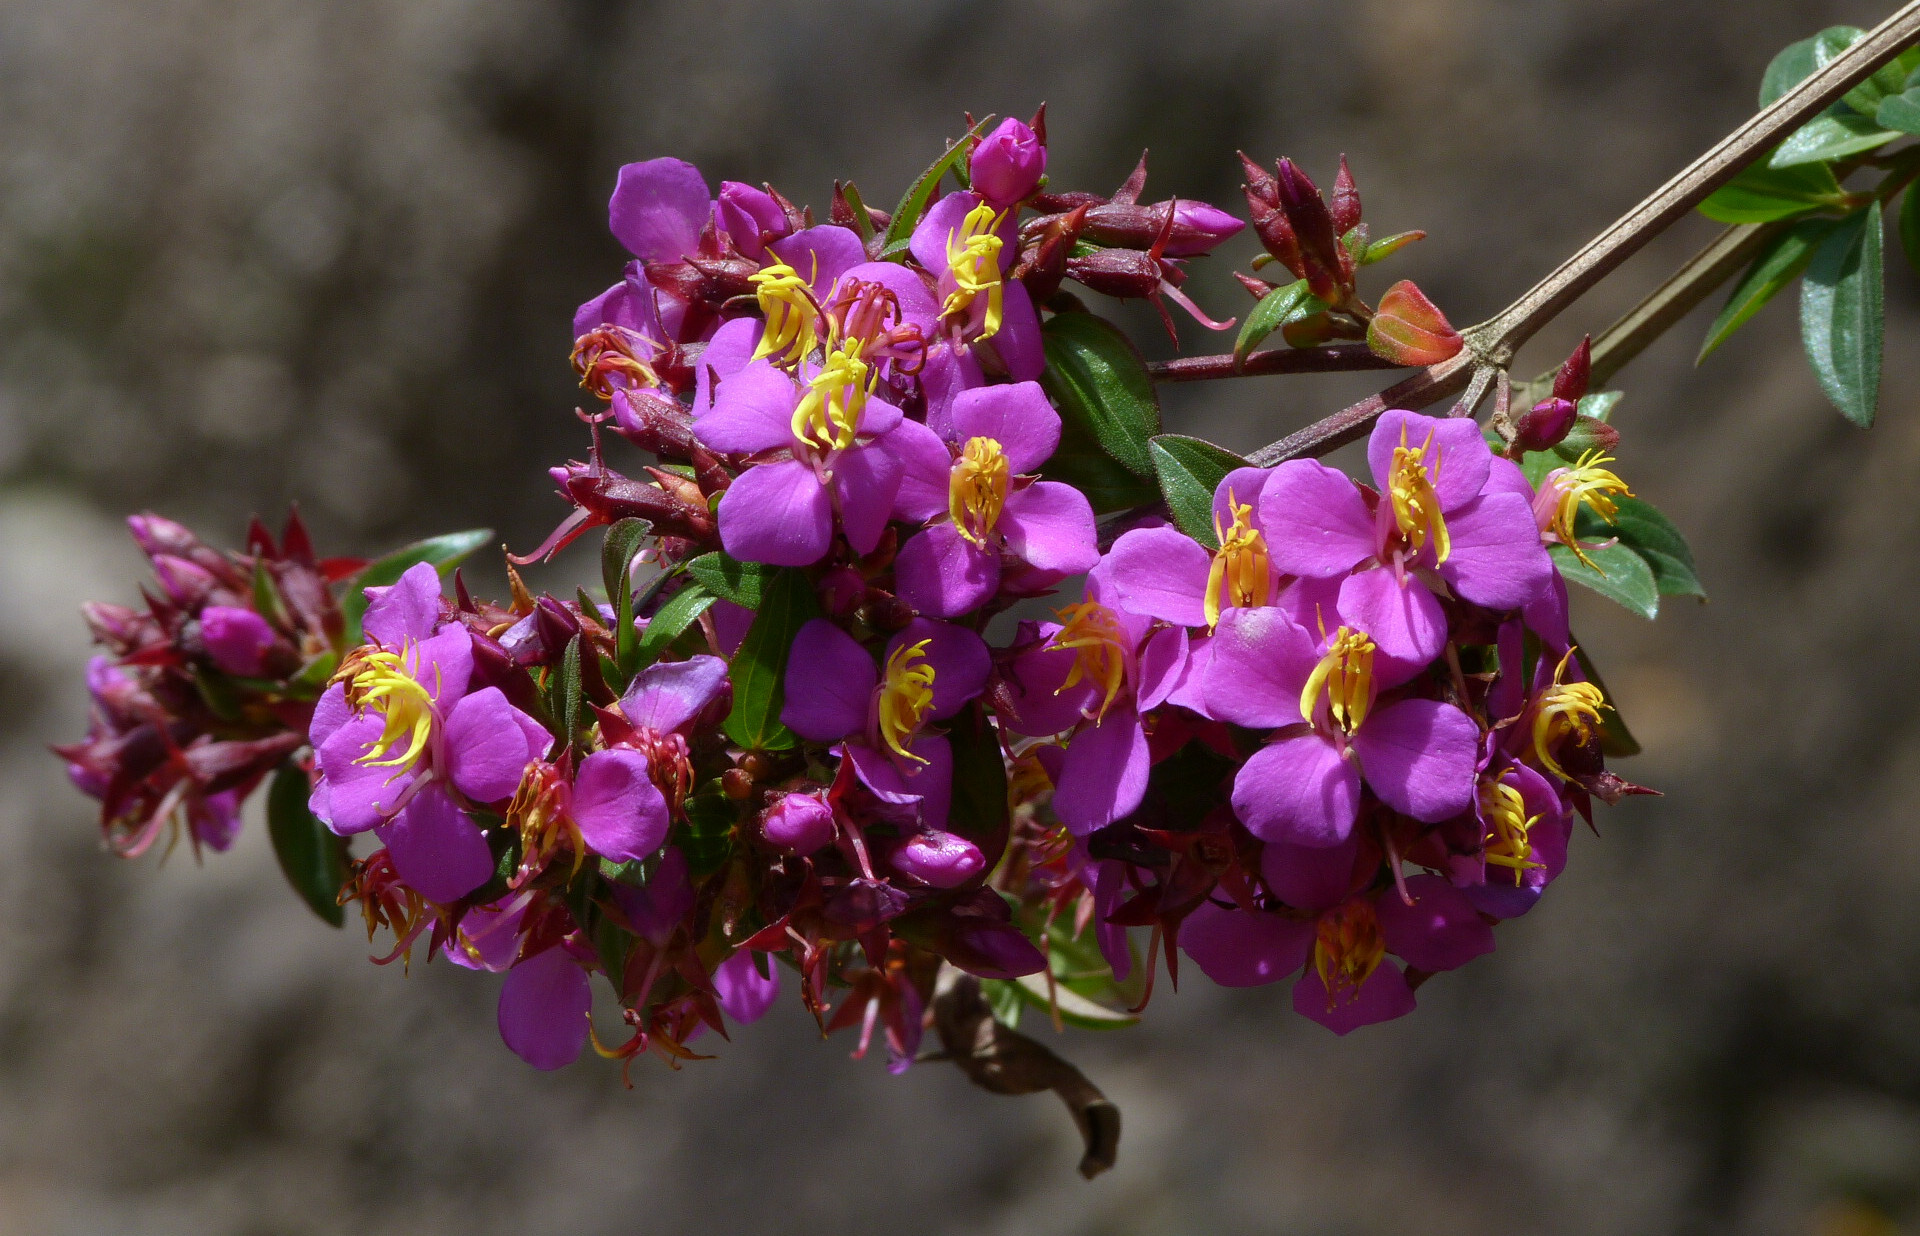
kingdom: Plantae
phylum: Tracheophyta
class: Magnoliopsida
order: Myrtales
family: Melastomataceae
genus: Monochaetum
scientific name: Monochaetum myrtoideum
